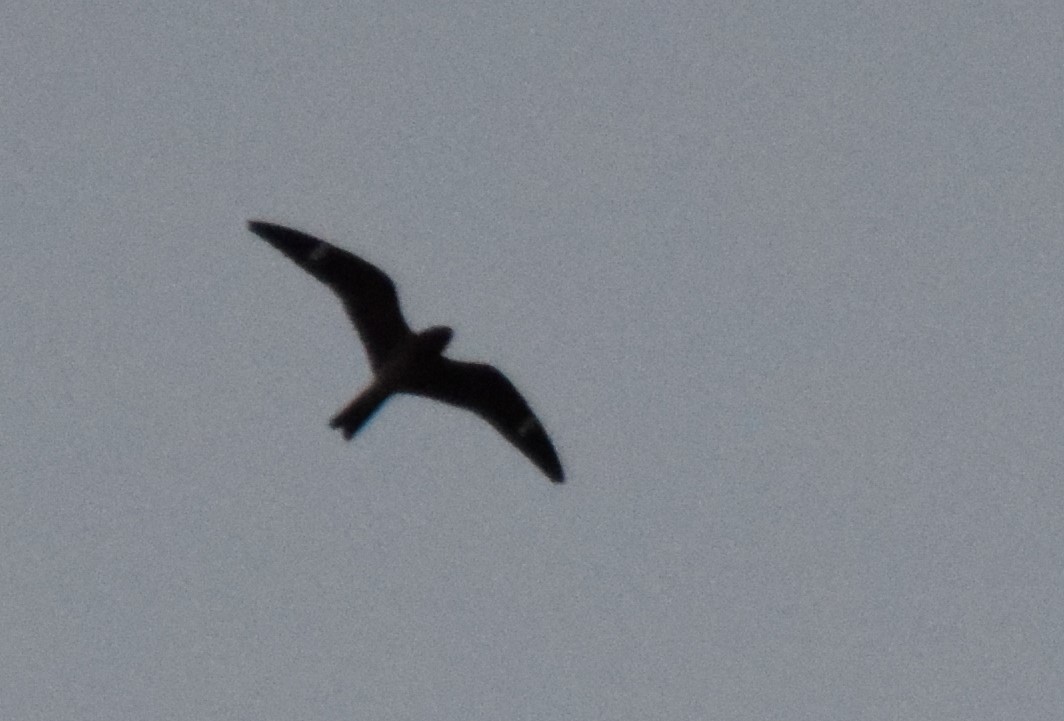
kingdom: Animalia
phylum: Chordata
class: Aves
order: Caprimulgiformes
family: Caprimulgidae
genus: Chordeiles
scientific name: Chordeiles minor
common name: Common nighthawk
